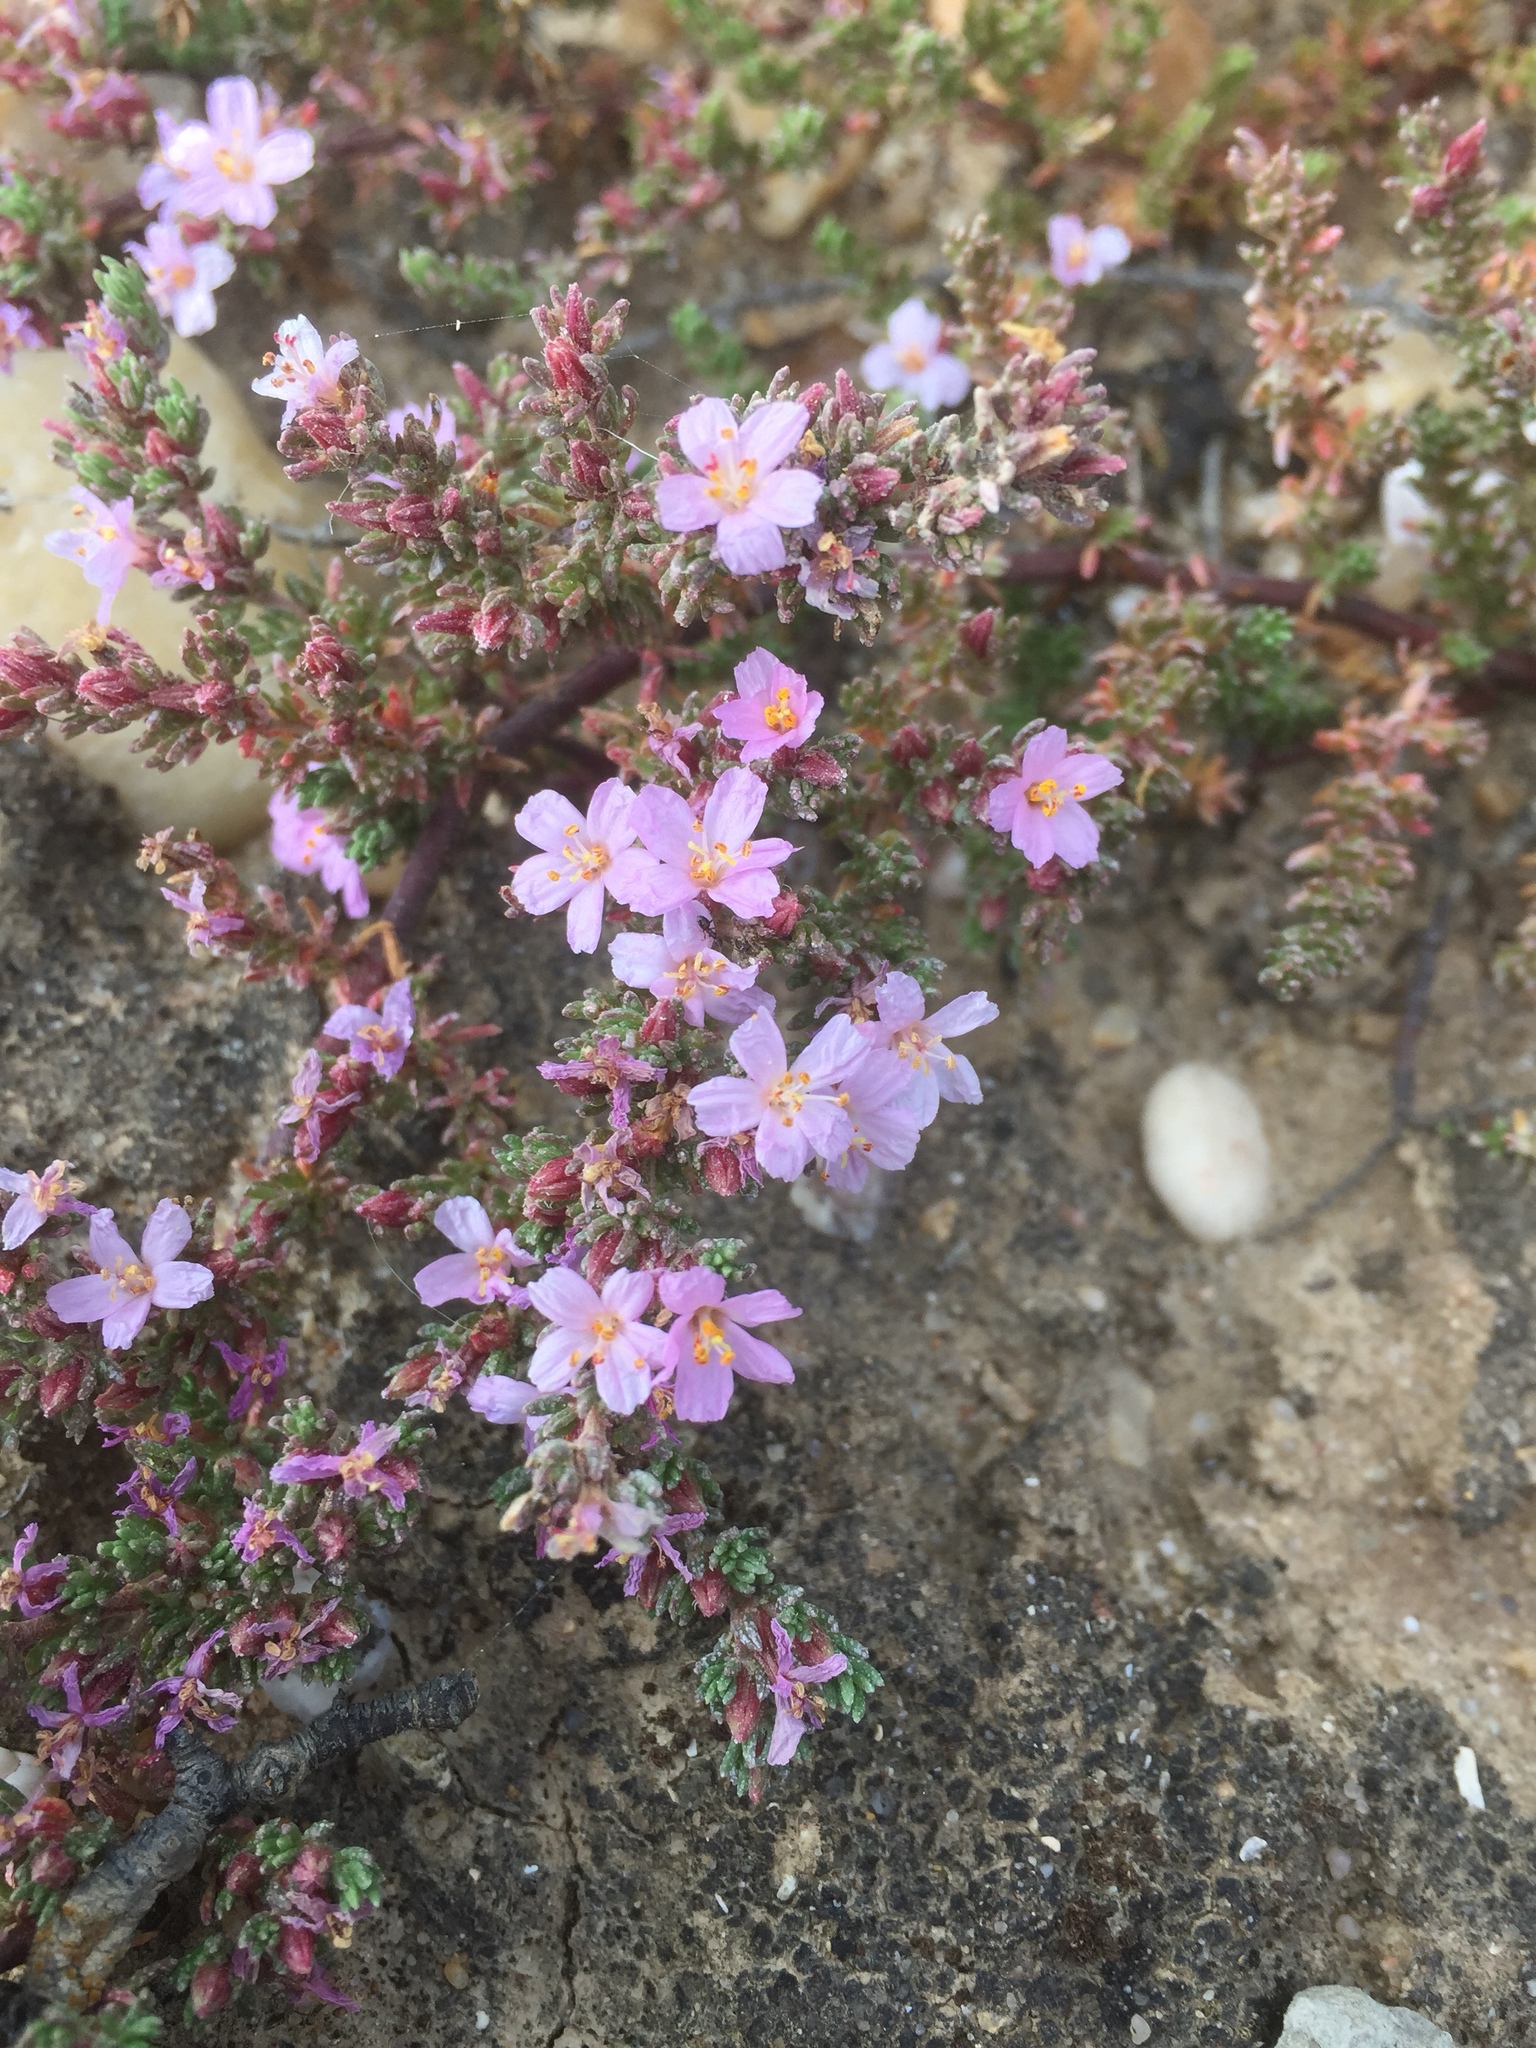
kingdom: Plantae
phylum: Tracheophyta
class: Magnoliopsida
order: Caryophyllales
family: Frankeniaceae
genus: Frankenia
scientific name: Frankenia laevis
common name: Sea-heath
